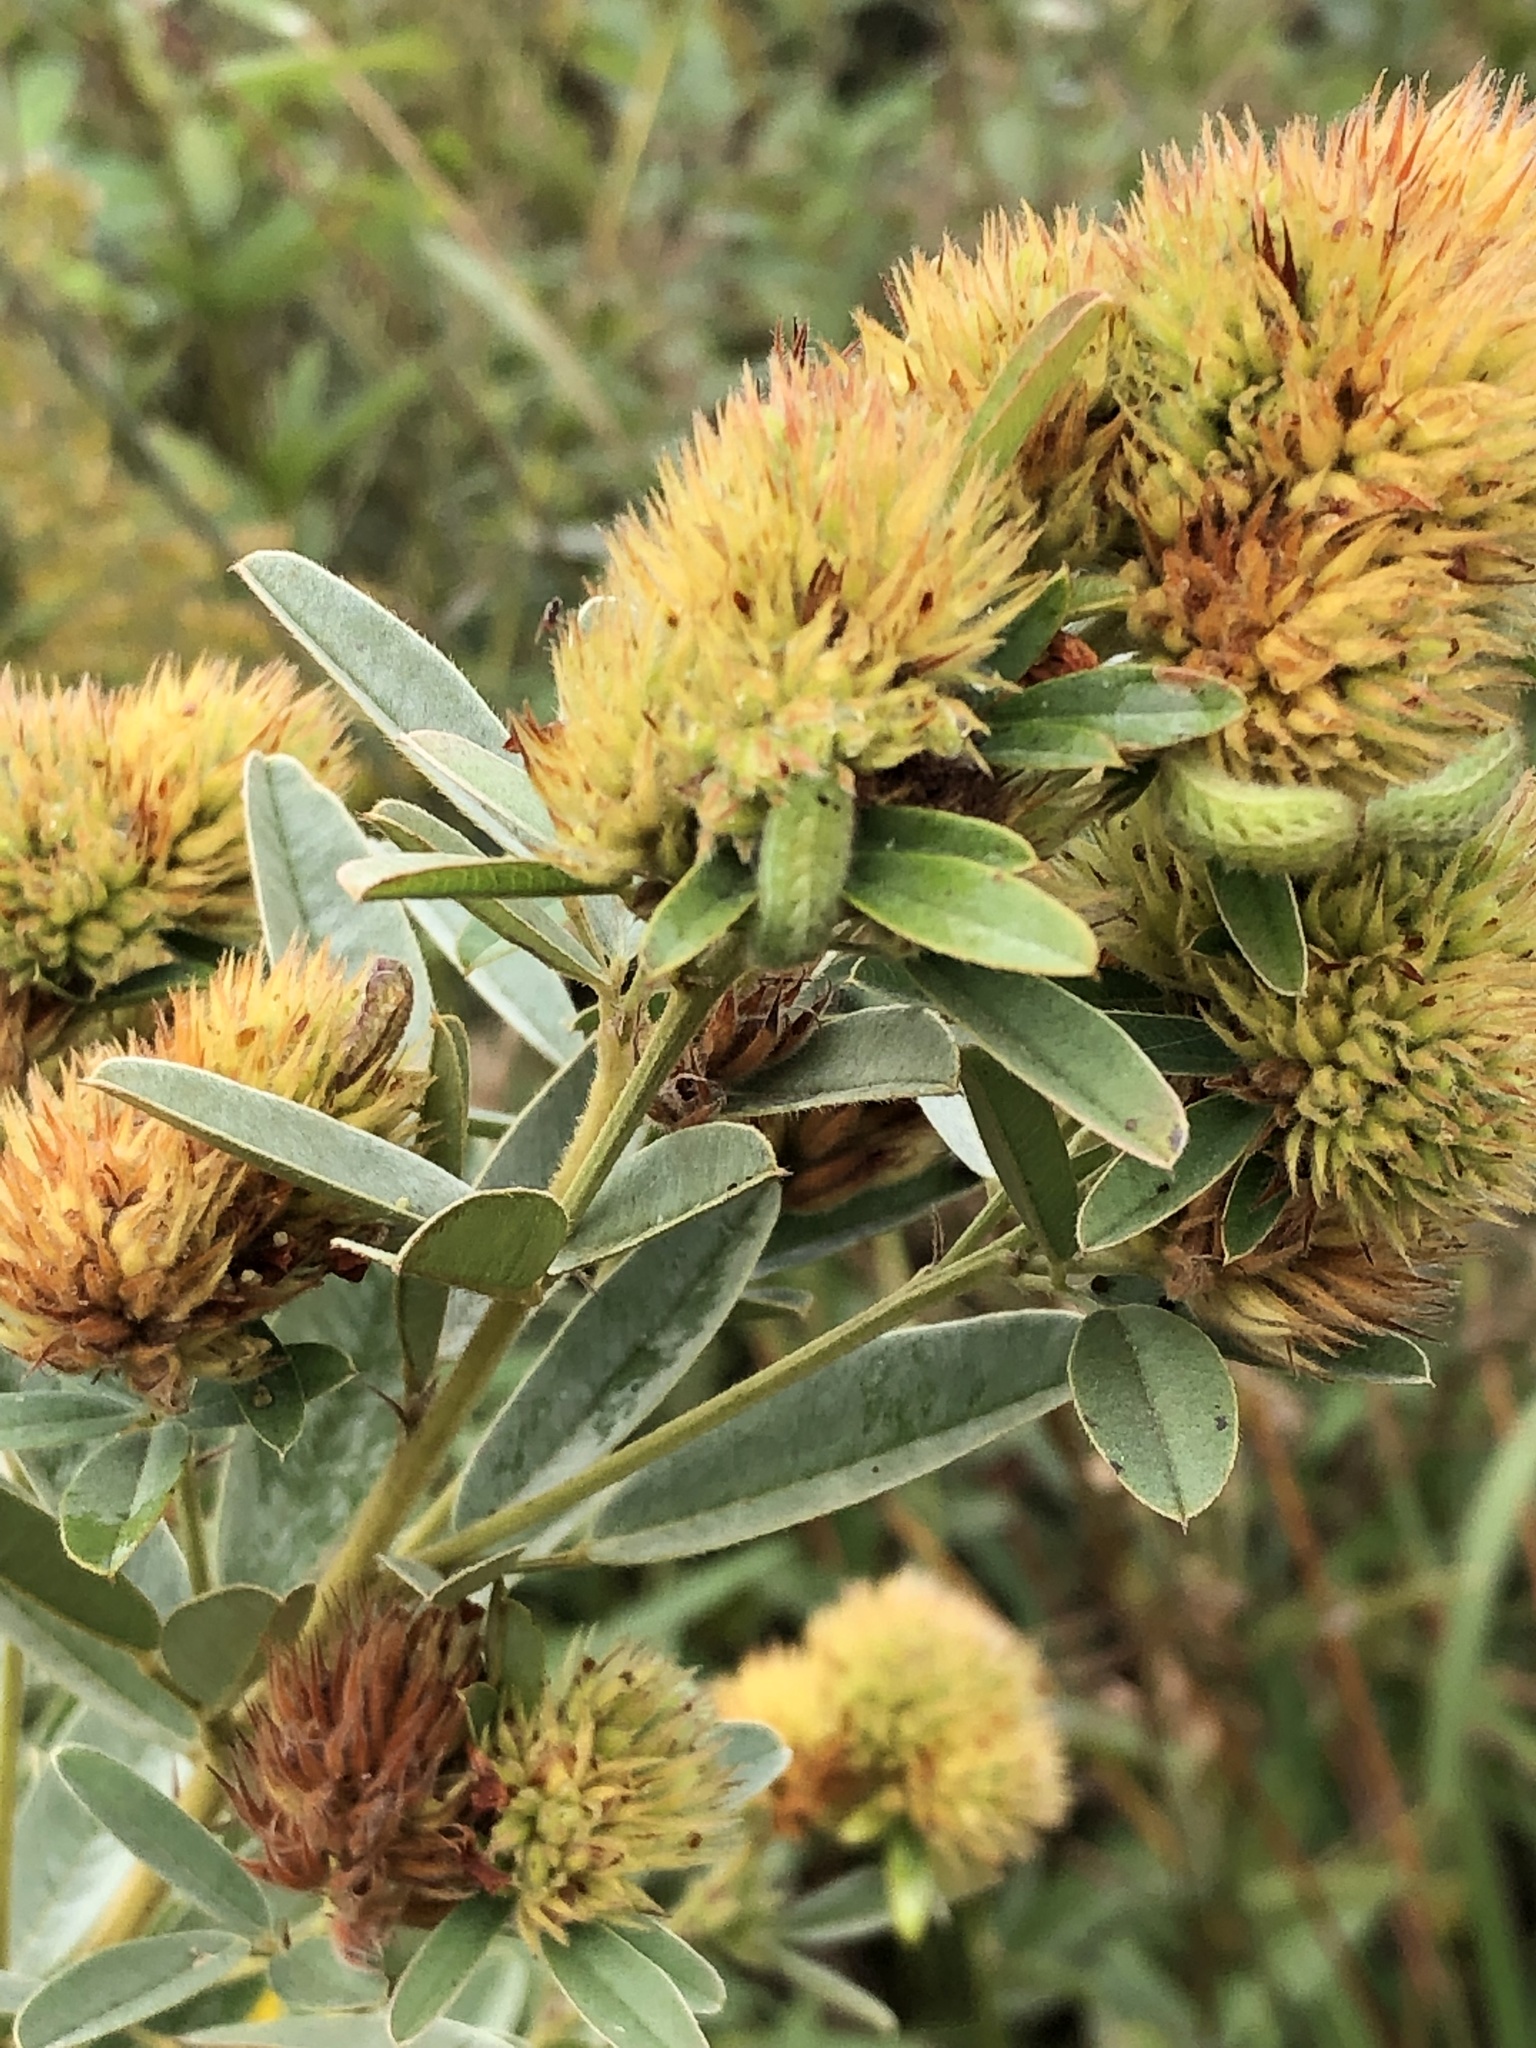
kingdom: Plantae
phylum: Tracheophyta
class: Magnoliopsida
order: Fabales
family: Fabaceae
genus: Lespedeza
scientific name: Lespedeza capitata
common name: Dusty clover
